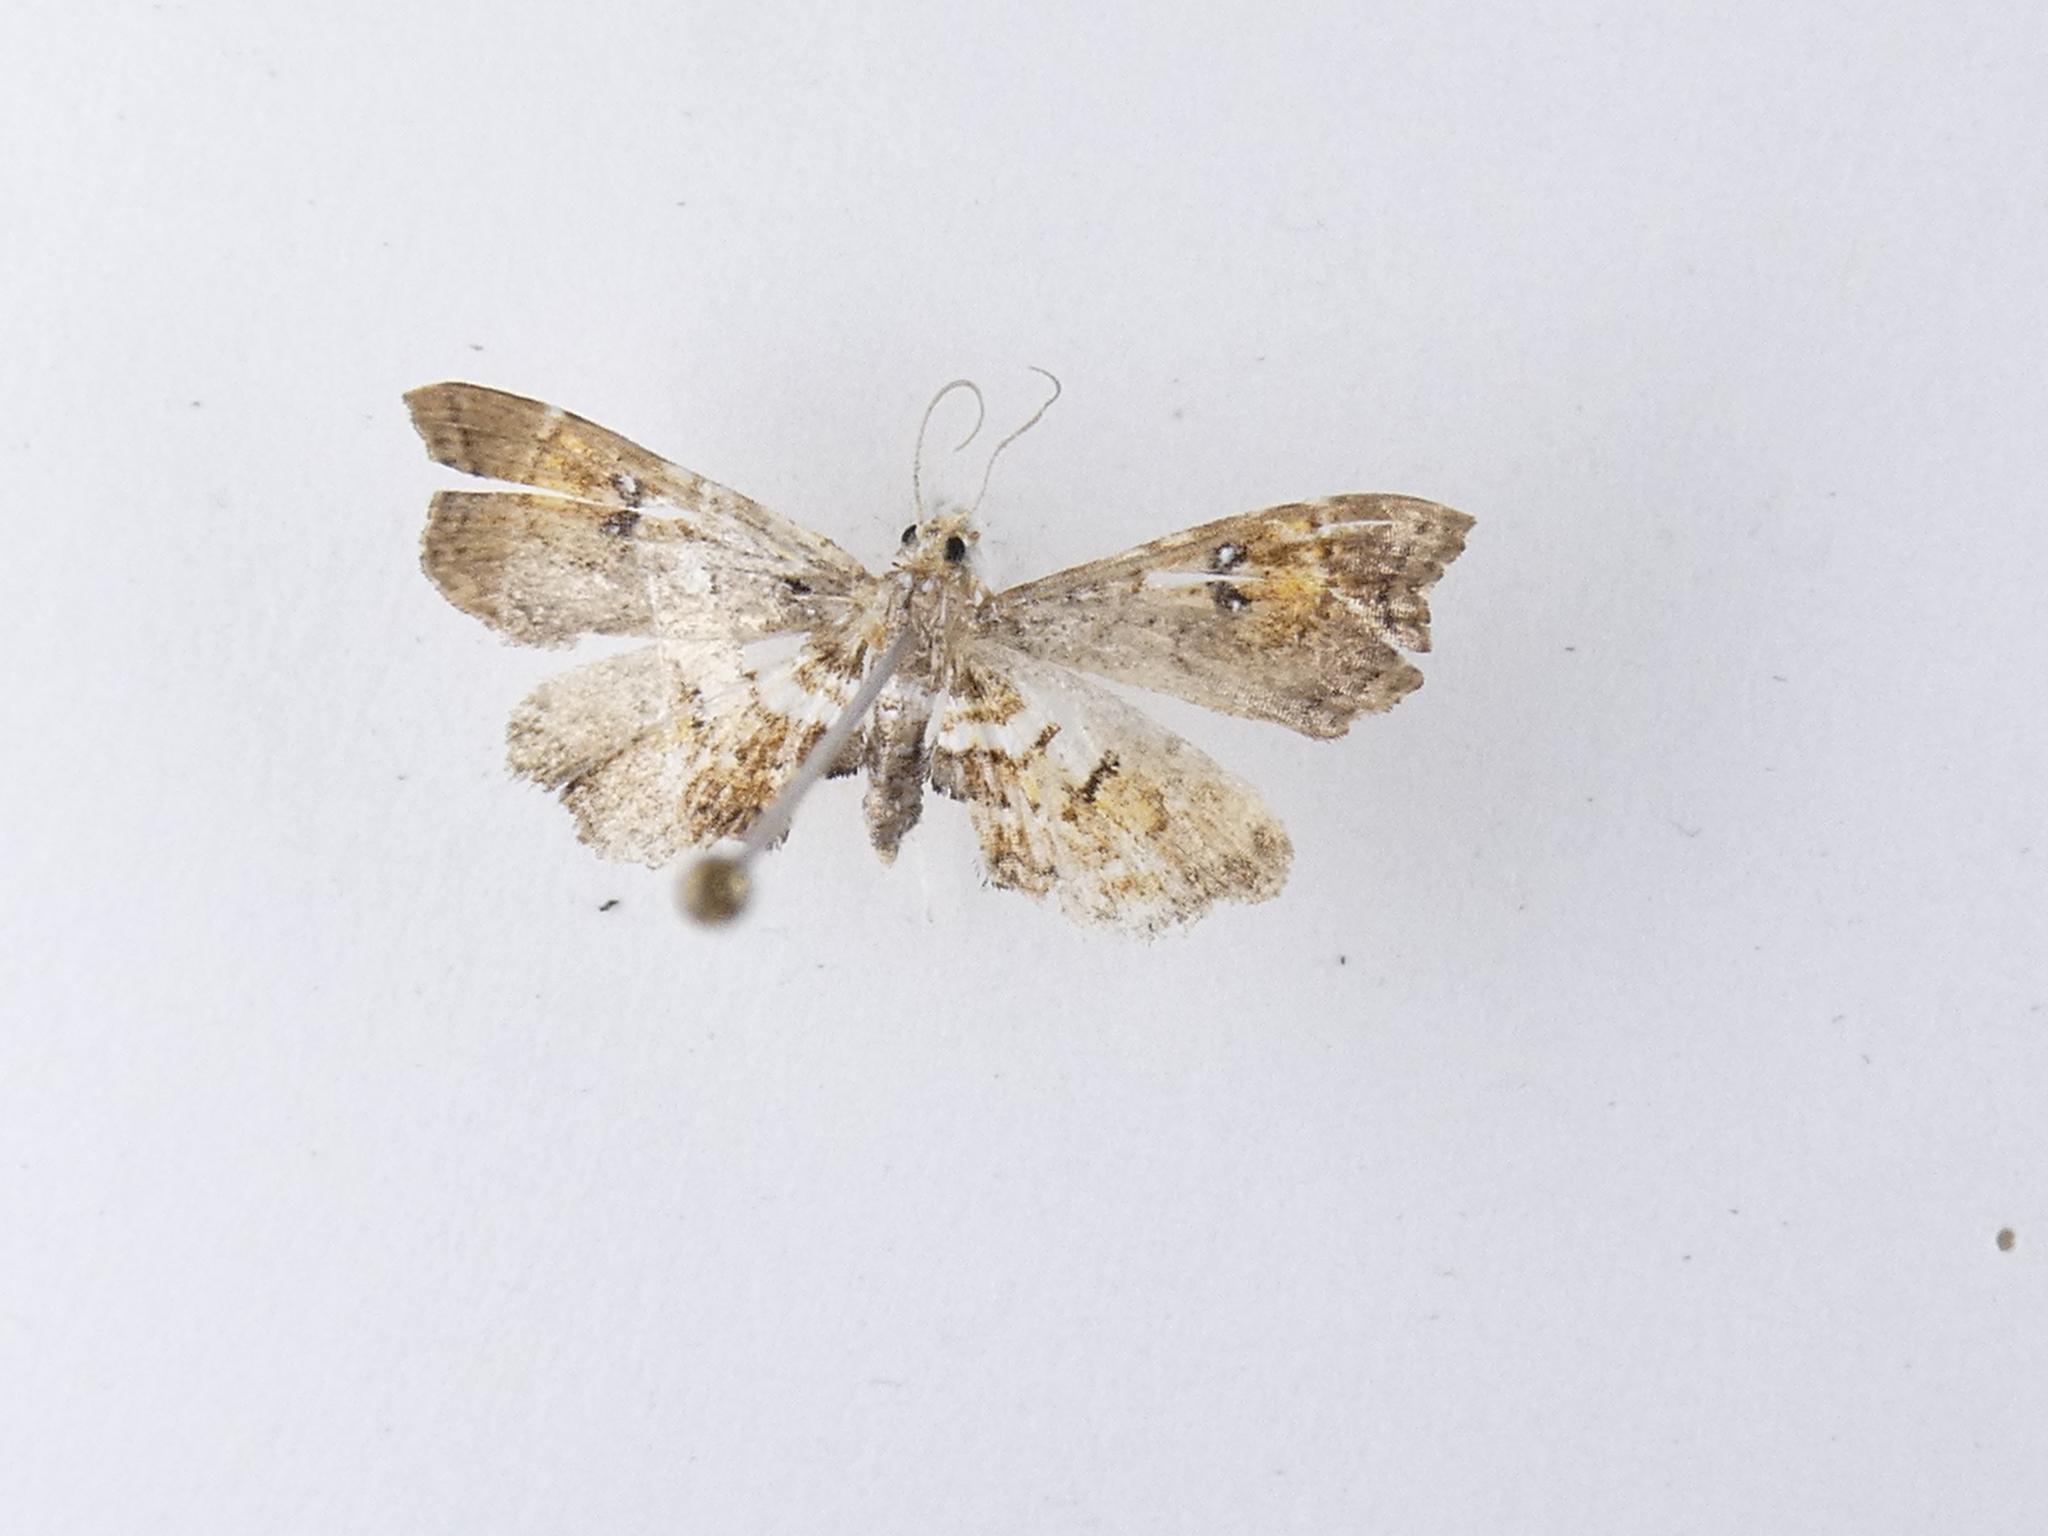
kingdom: Animalia
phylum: Arthropoda
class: Insecta
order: Lepidoptera
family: Pyralidae
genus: Musotima
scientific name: Musotima aduncalis
